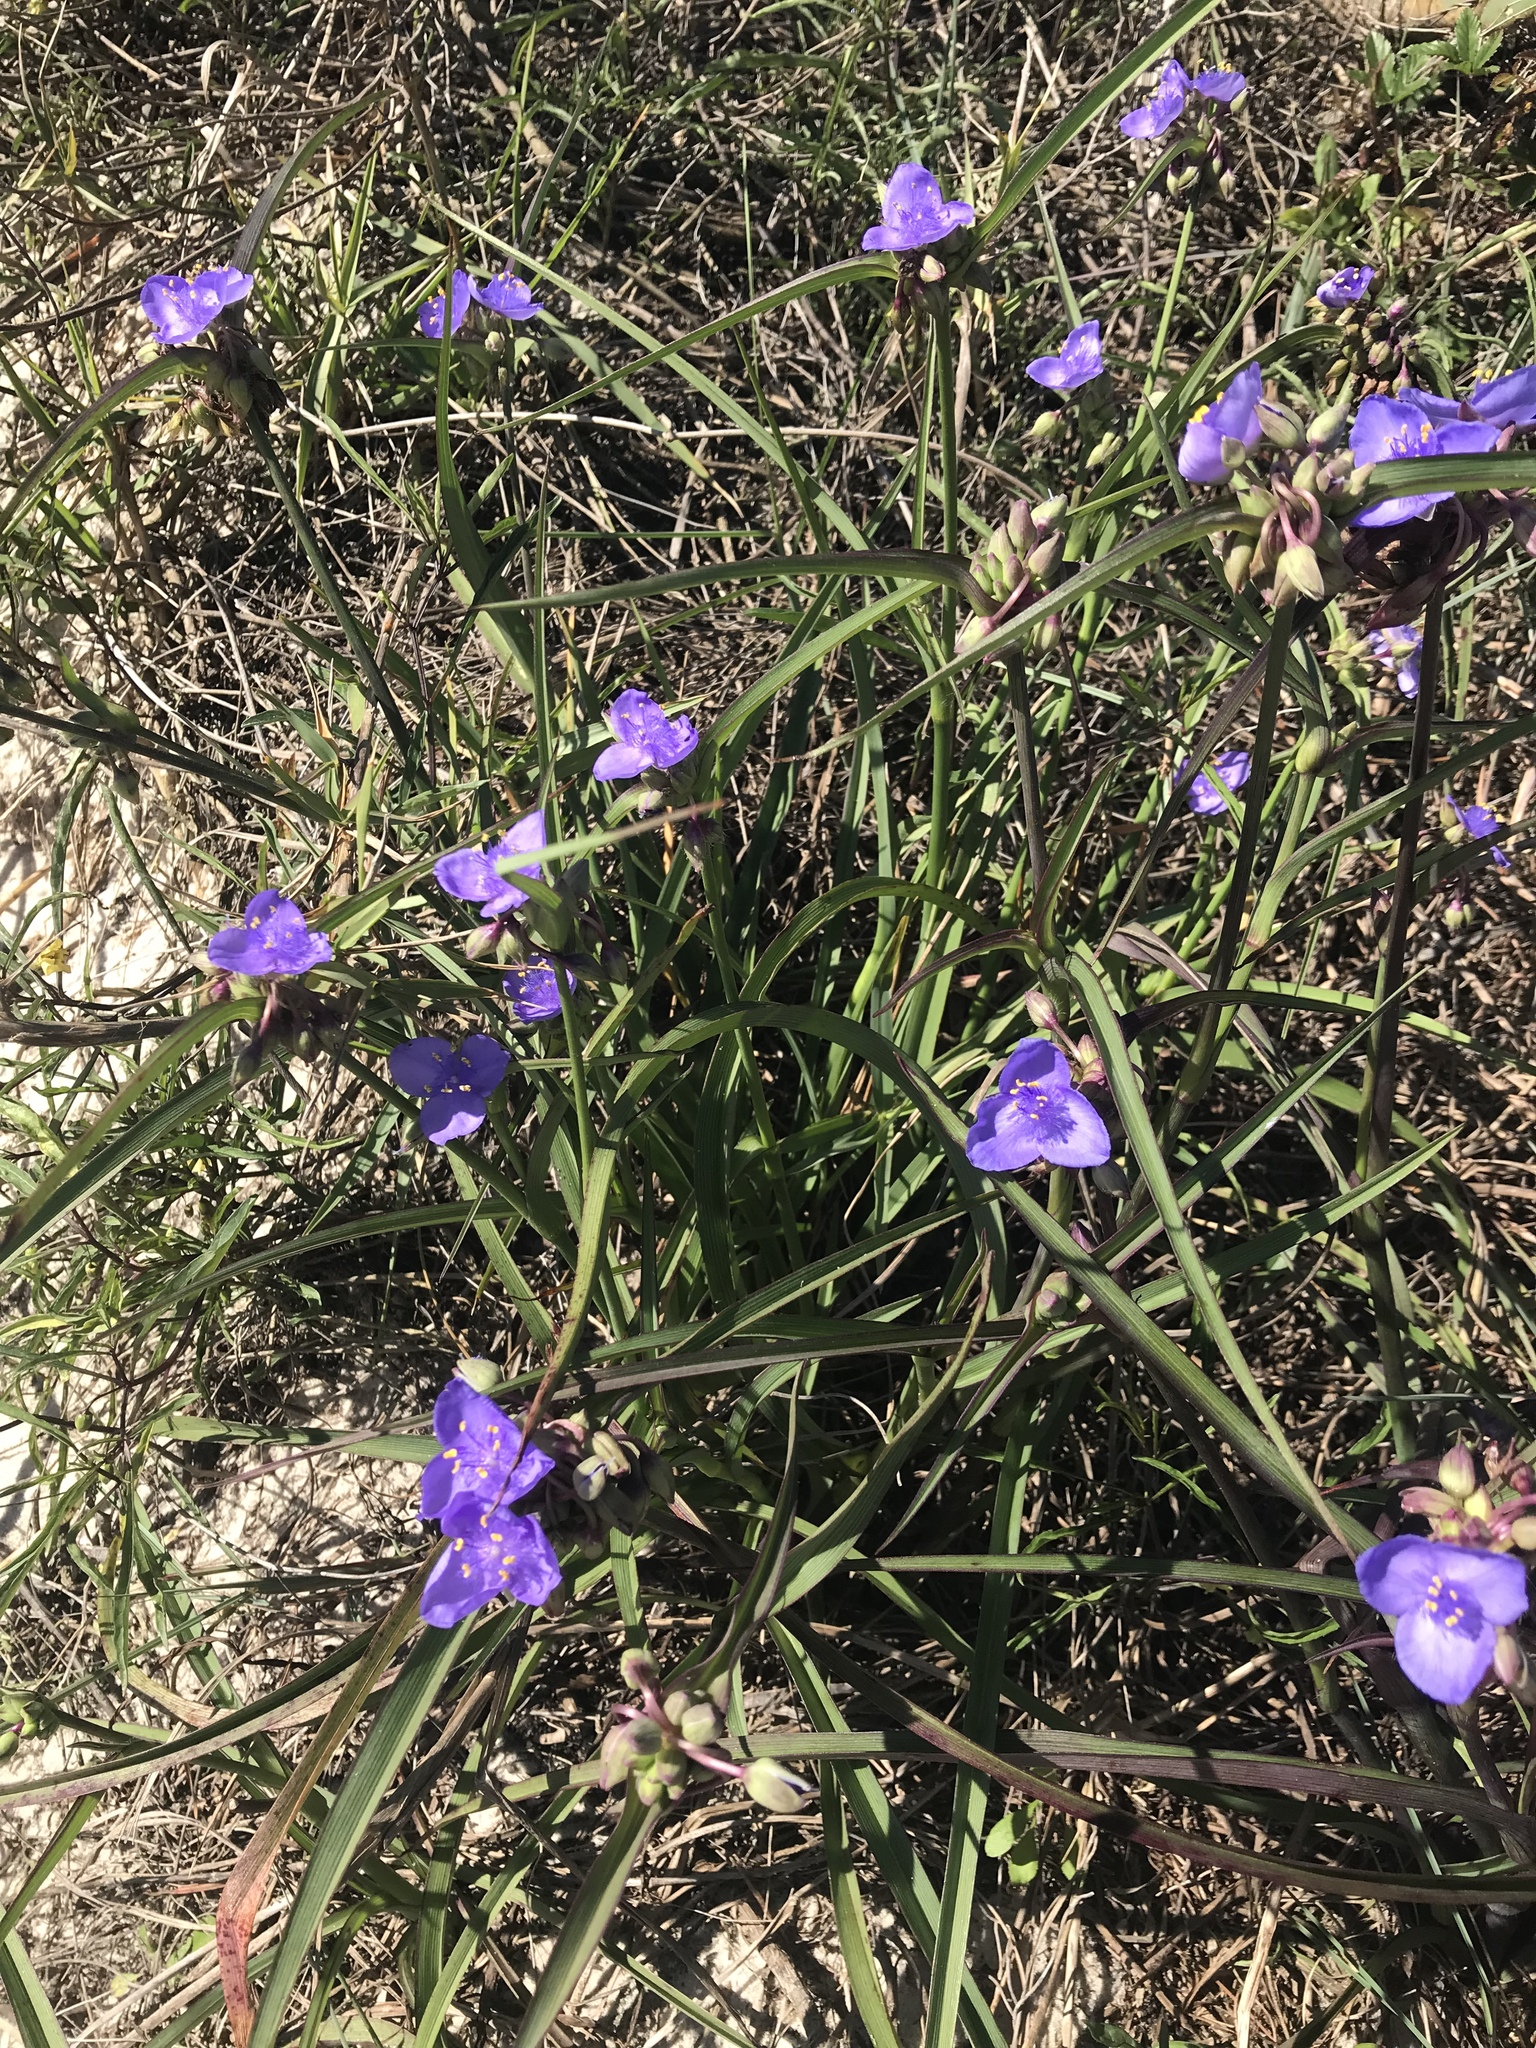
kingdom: Plantae
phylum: Tracheophyta
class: Liliopsida
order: Commelinales
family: Commelinaceae
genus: Tradescantia
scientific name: Tradescantia ohiensis
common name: Ohio spiderwort
